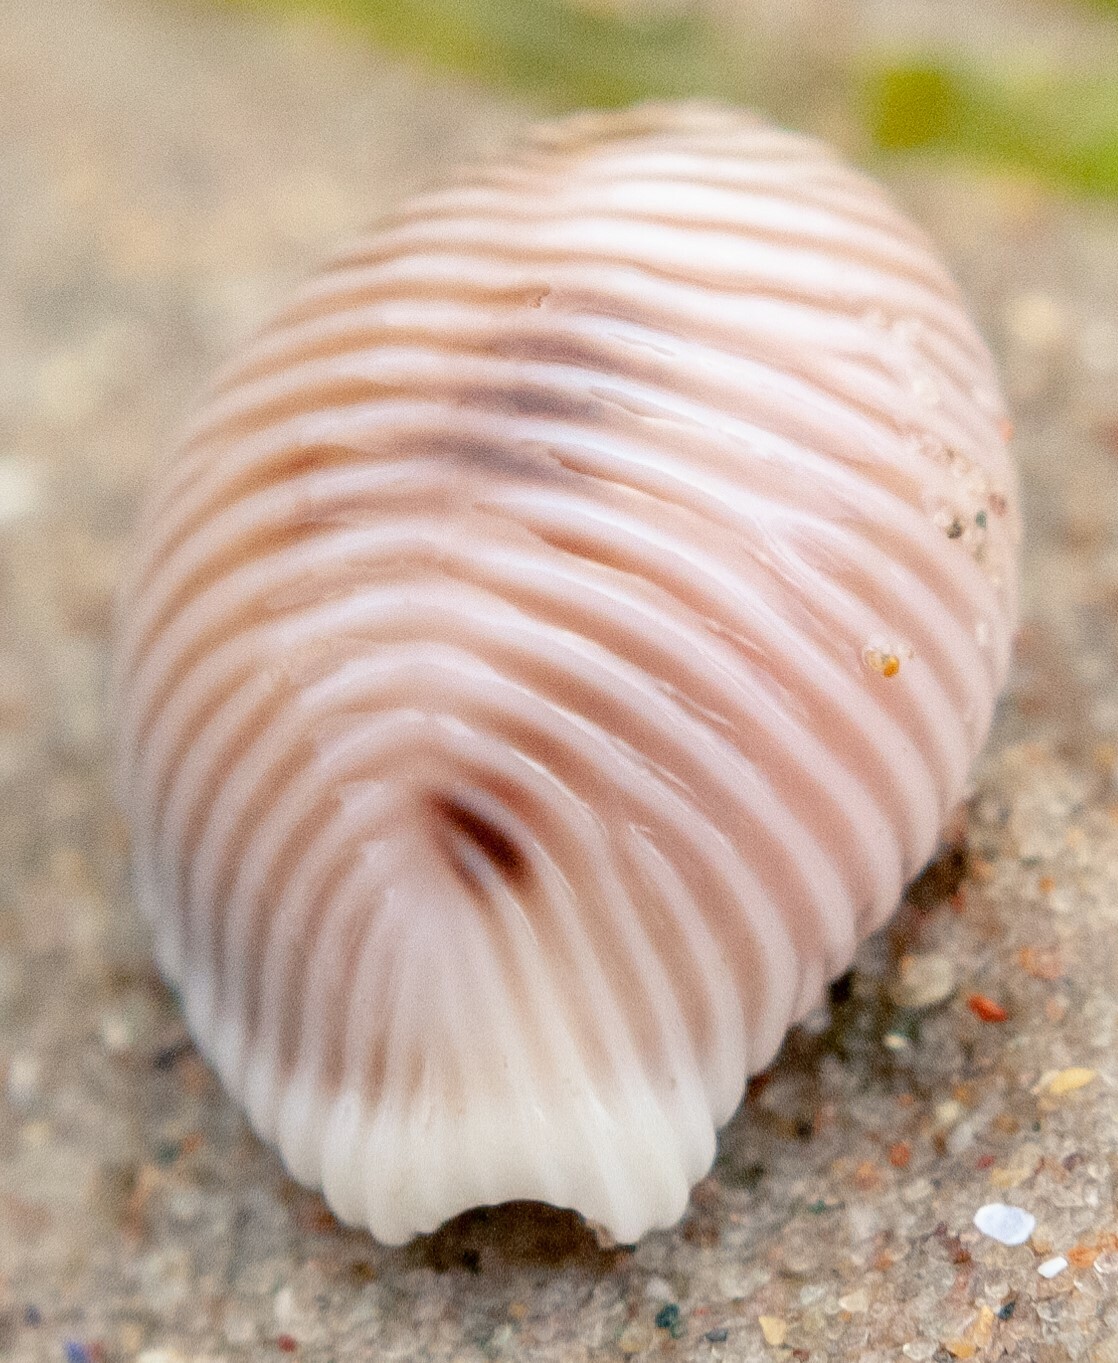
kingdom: Animalia
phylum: Mollusca
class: Gastropoda
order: Littorinimorpha
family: Triviidae
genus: Trivia
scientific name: Trivia monacha
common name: Spotted cowrie
